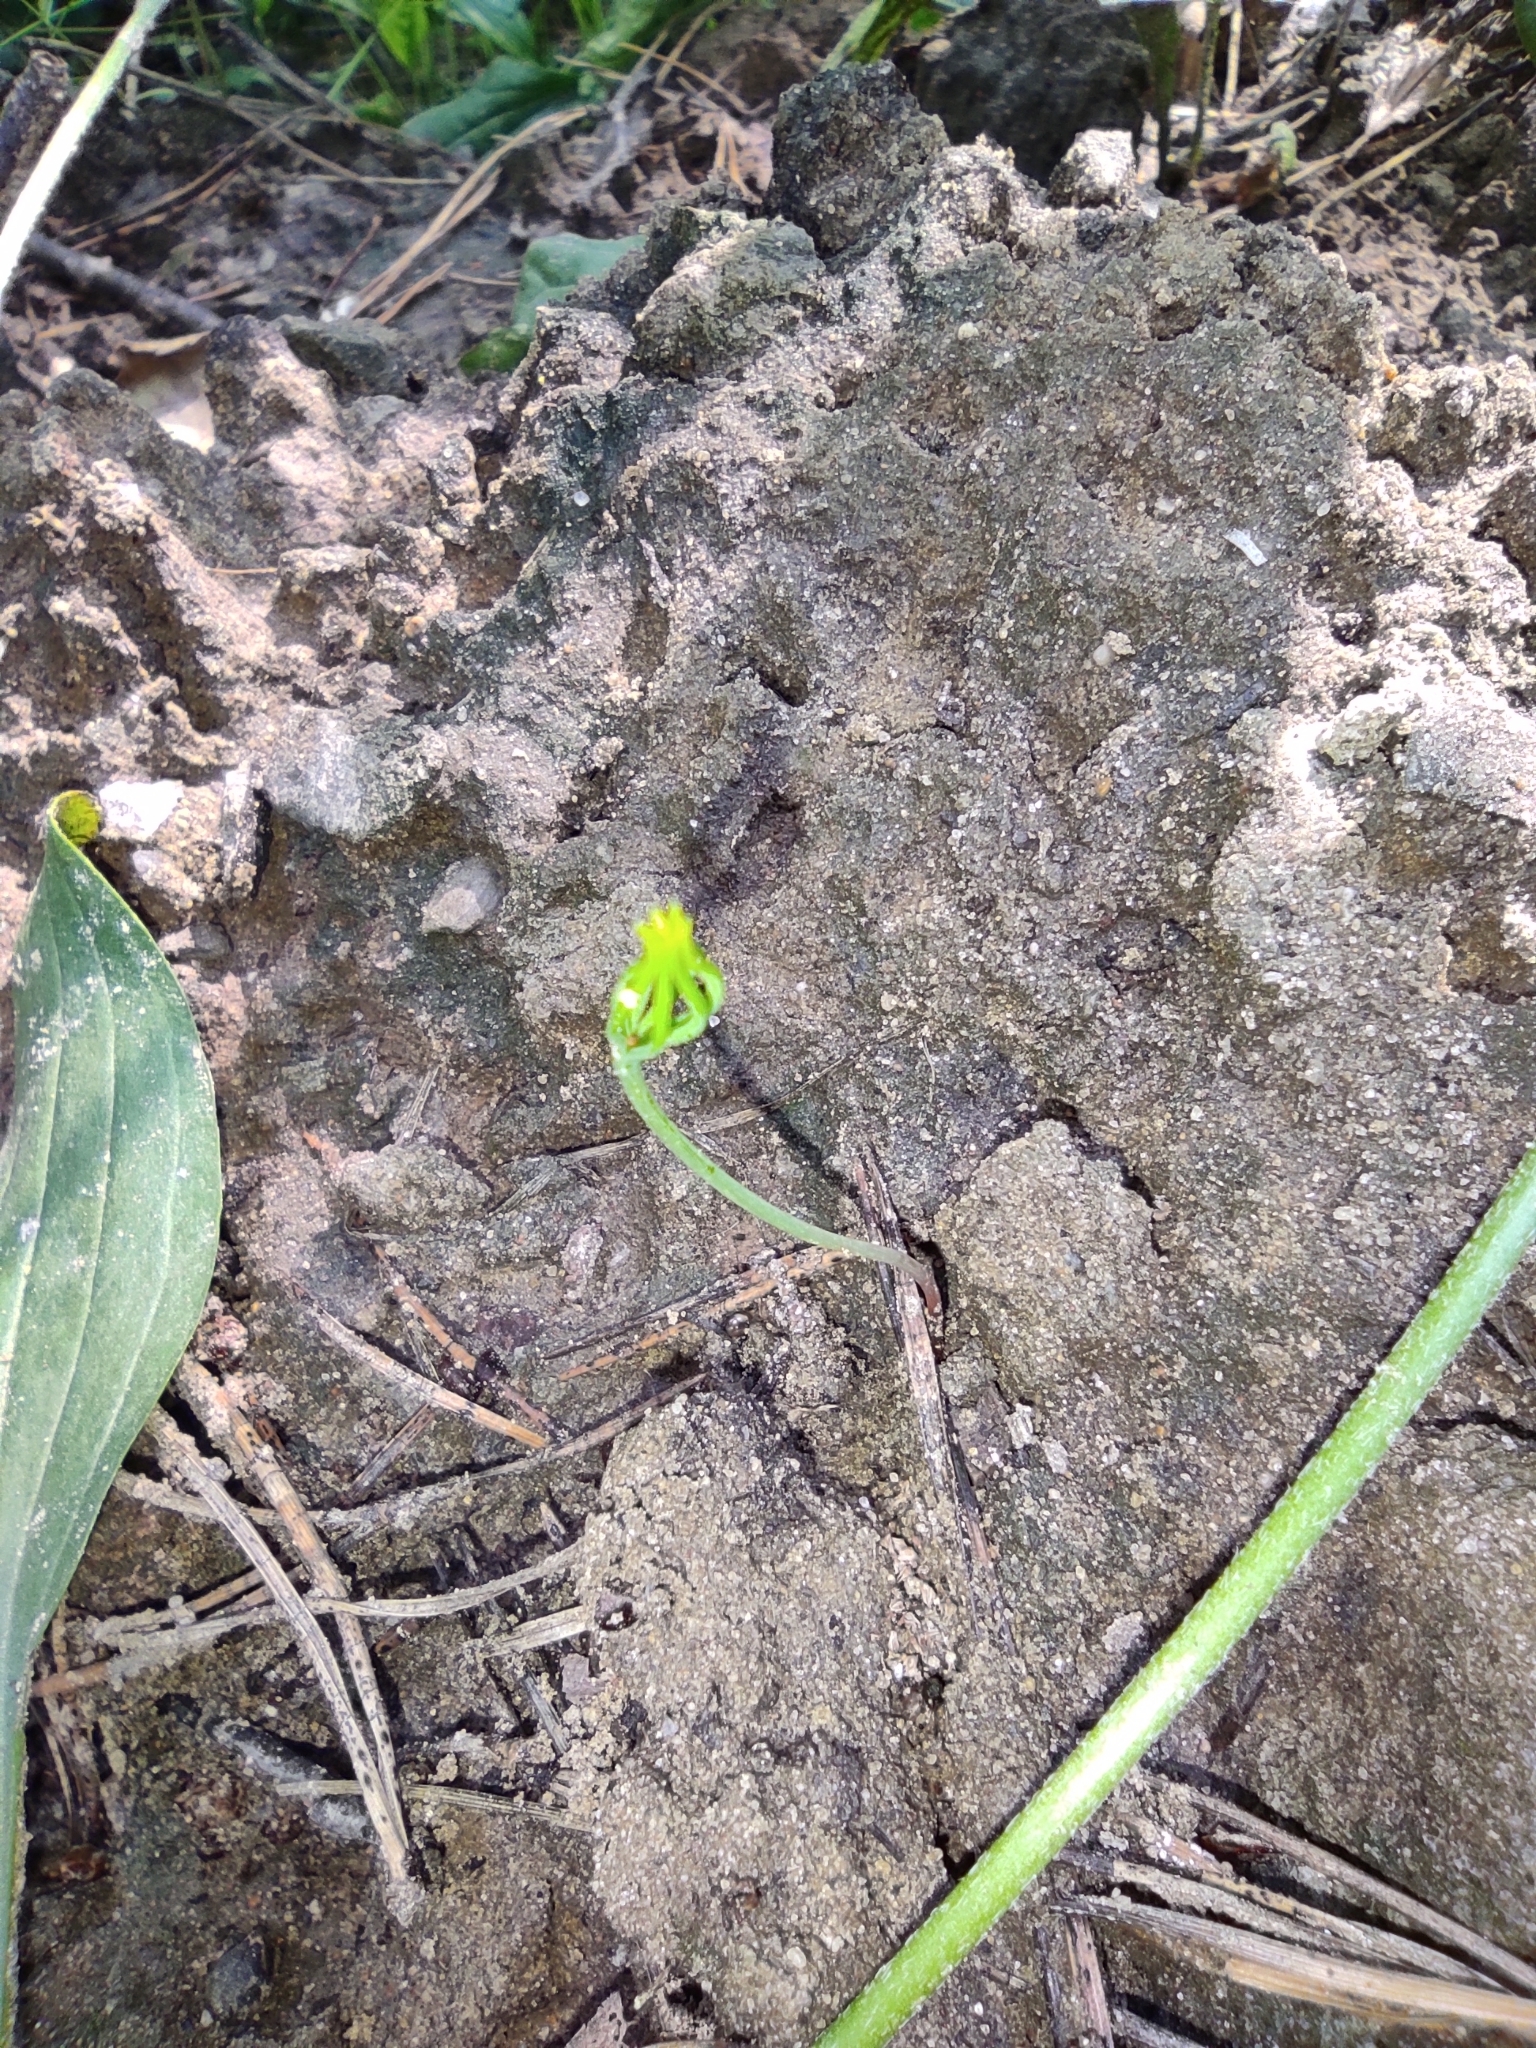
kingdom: Plantae
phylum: Tracheophyta
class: Pinopsida
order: Pinales
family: Pinaceae
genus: Pinus
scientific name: Pinus sylvestris
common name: Scots pine
